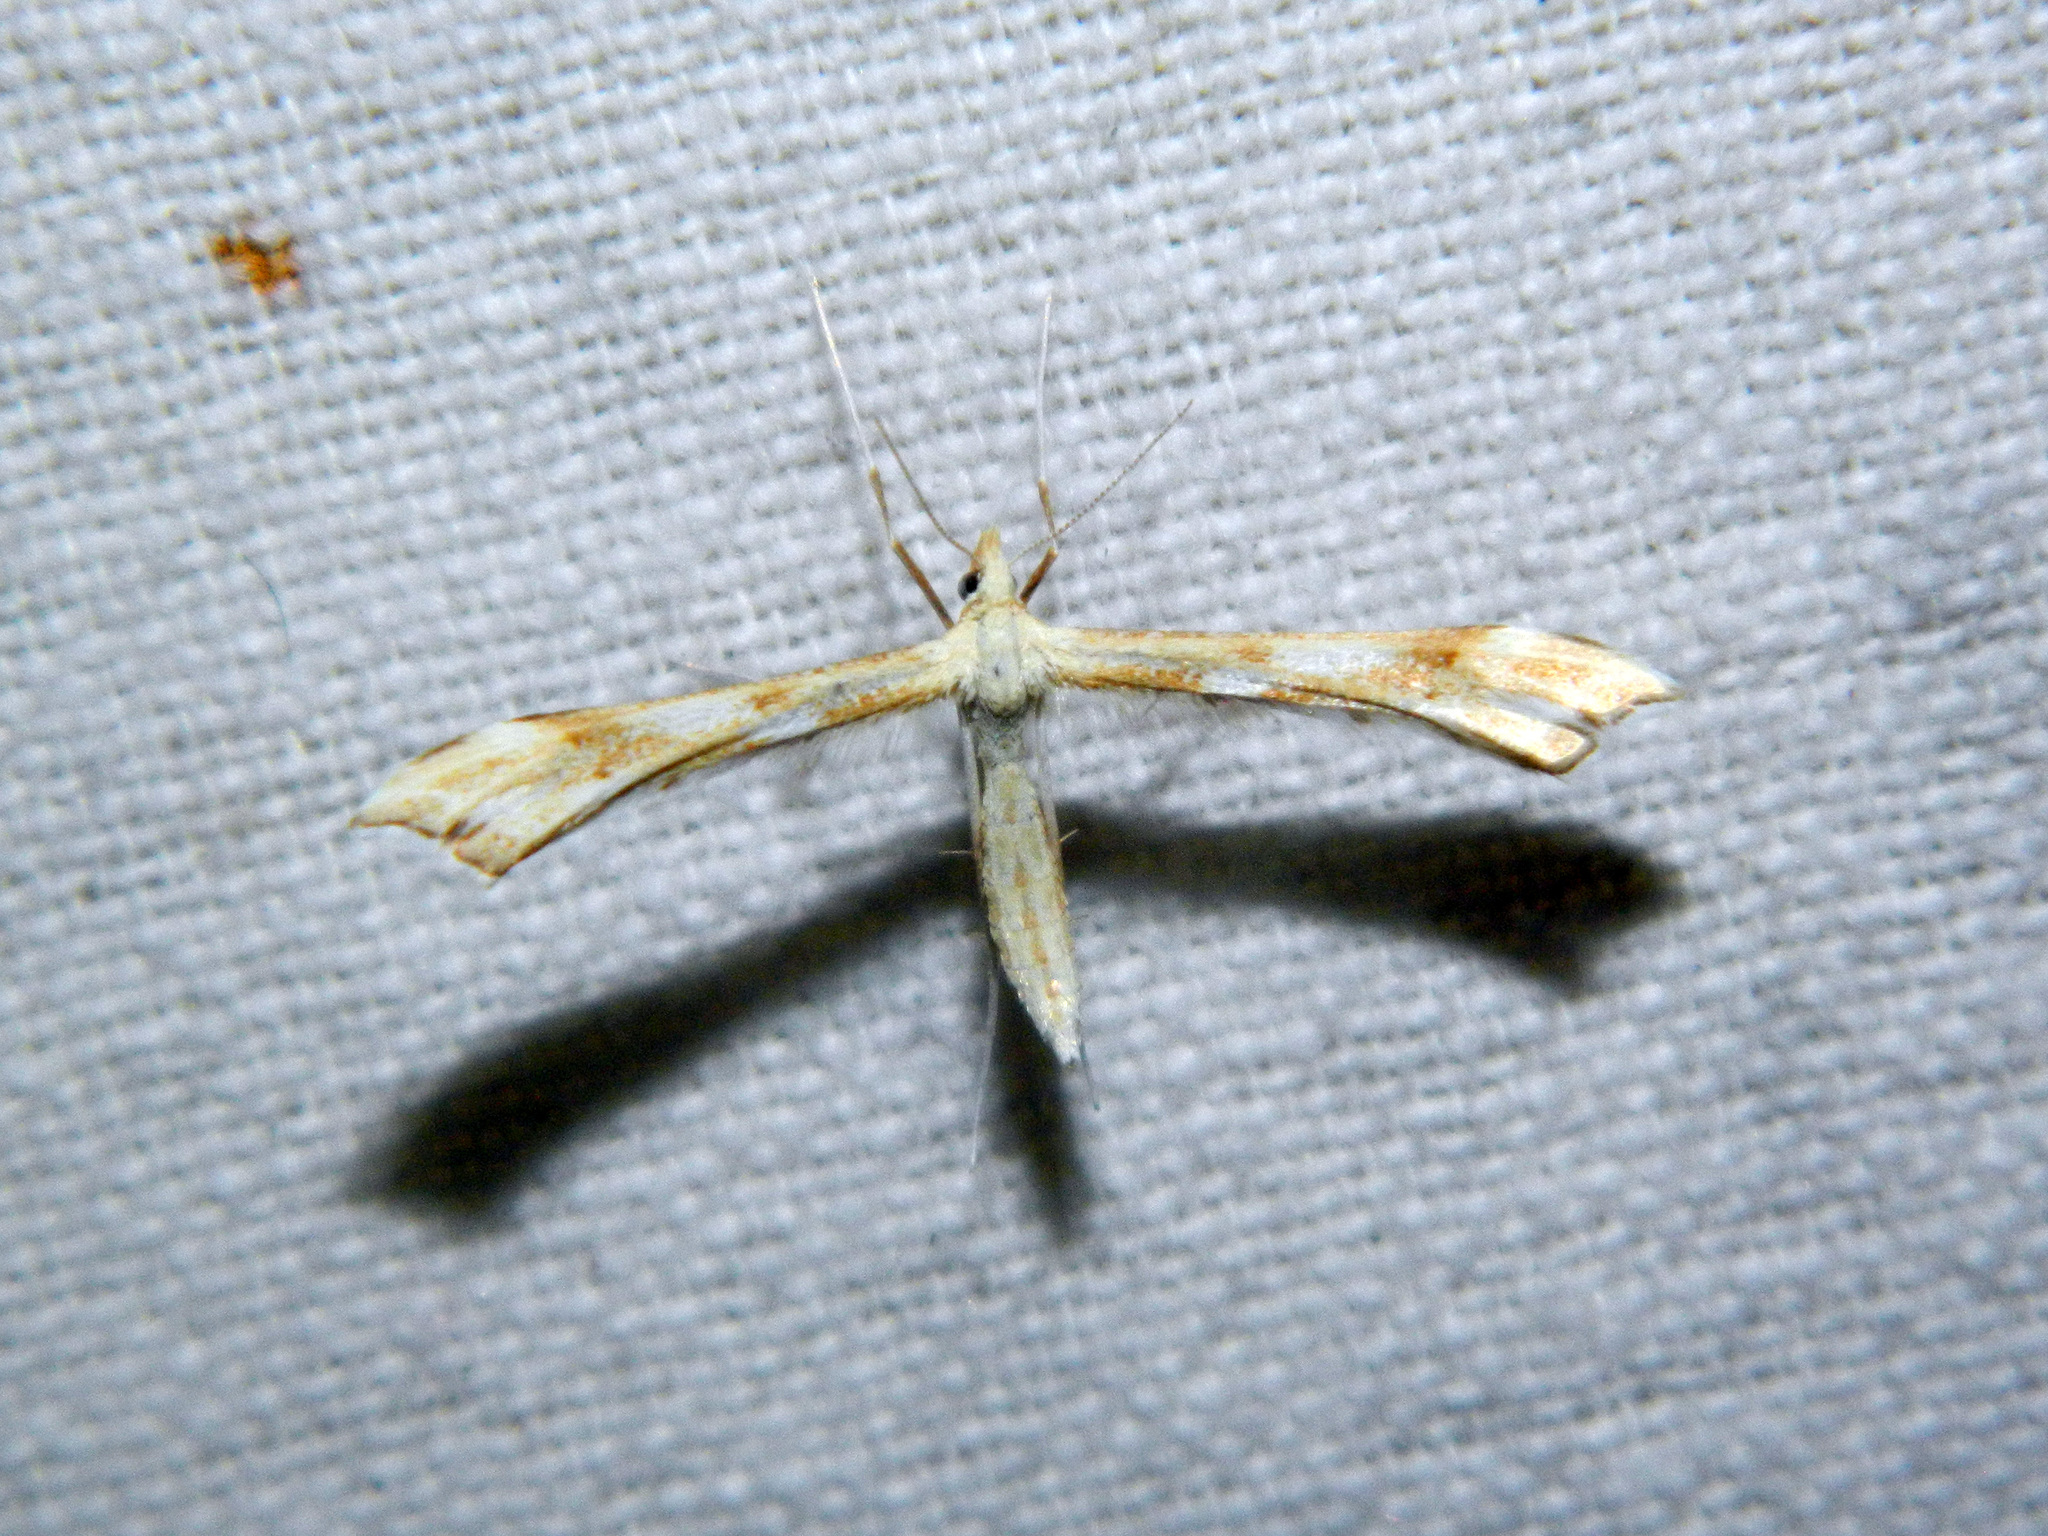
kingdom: Animalia
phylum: Arthropoda
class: Insecta
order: Lepidoptera
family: Pterophoridae
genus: Gillmeria
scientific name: Gillmeria pallidactyla
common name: Yarrow plume
